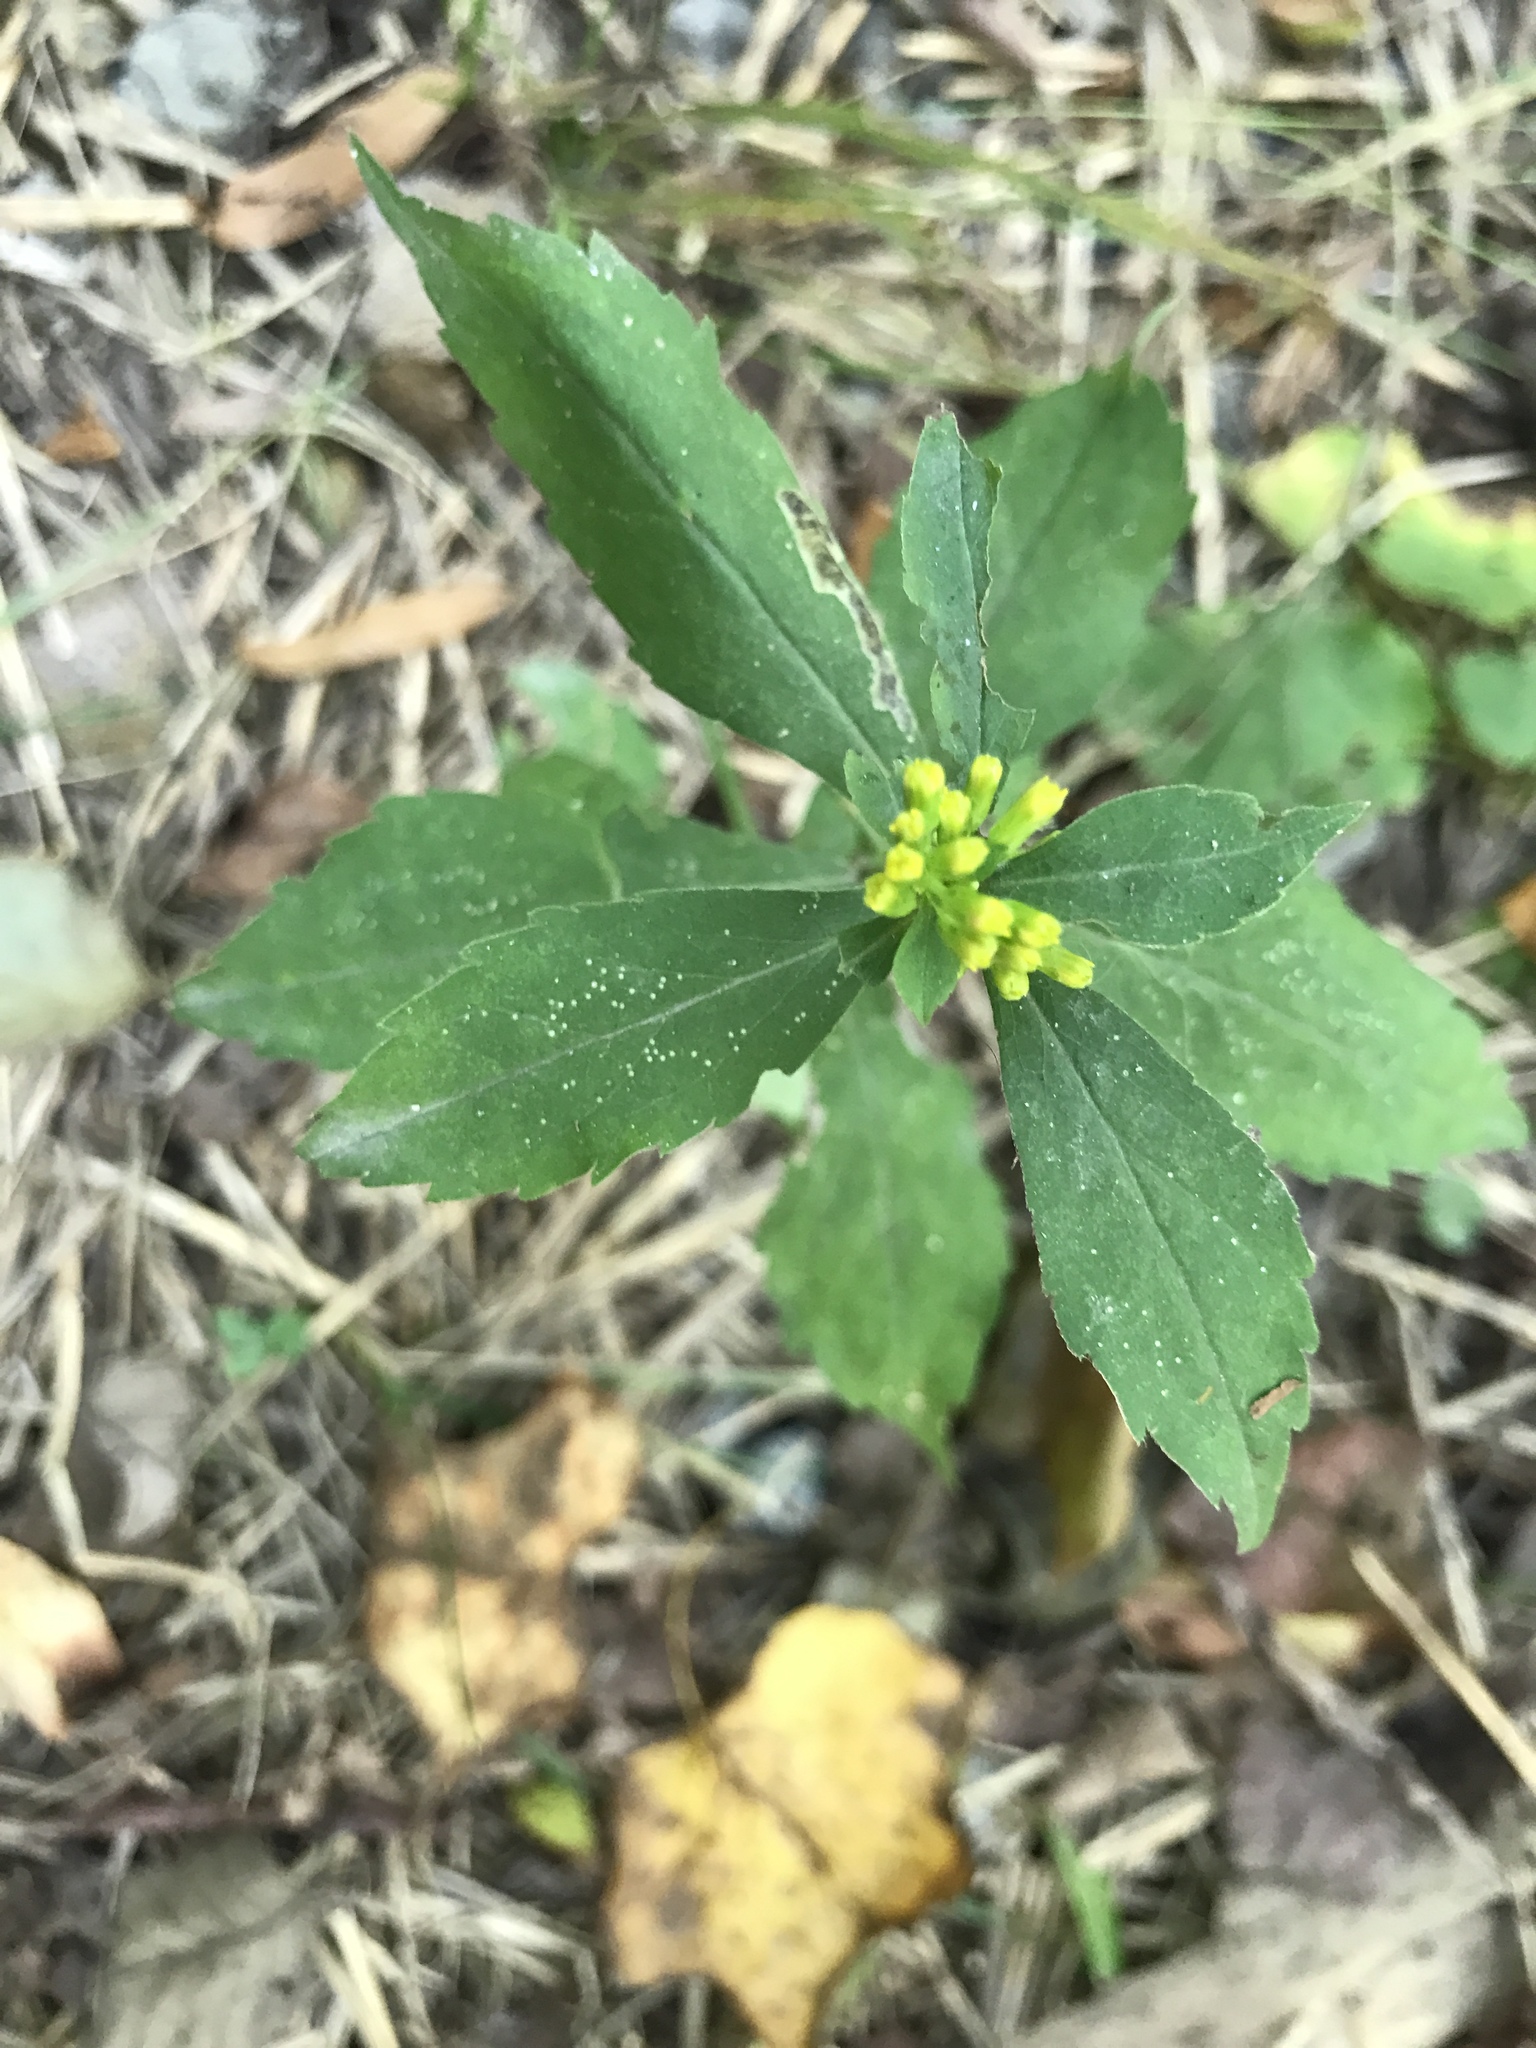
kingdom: Plantae
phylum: Tracheophyta
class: Magnoliopsida
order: Asterales
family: Asteraceae
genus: Solidago
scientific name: Solidago flexicaulis
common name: Zig-zag goldenrod
